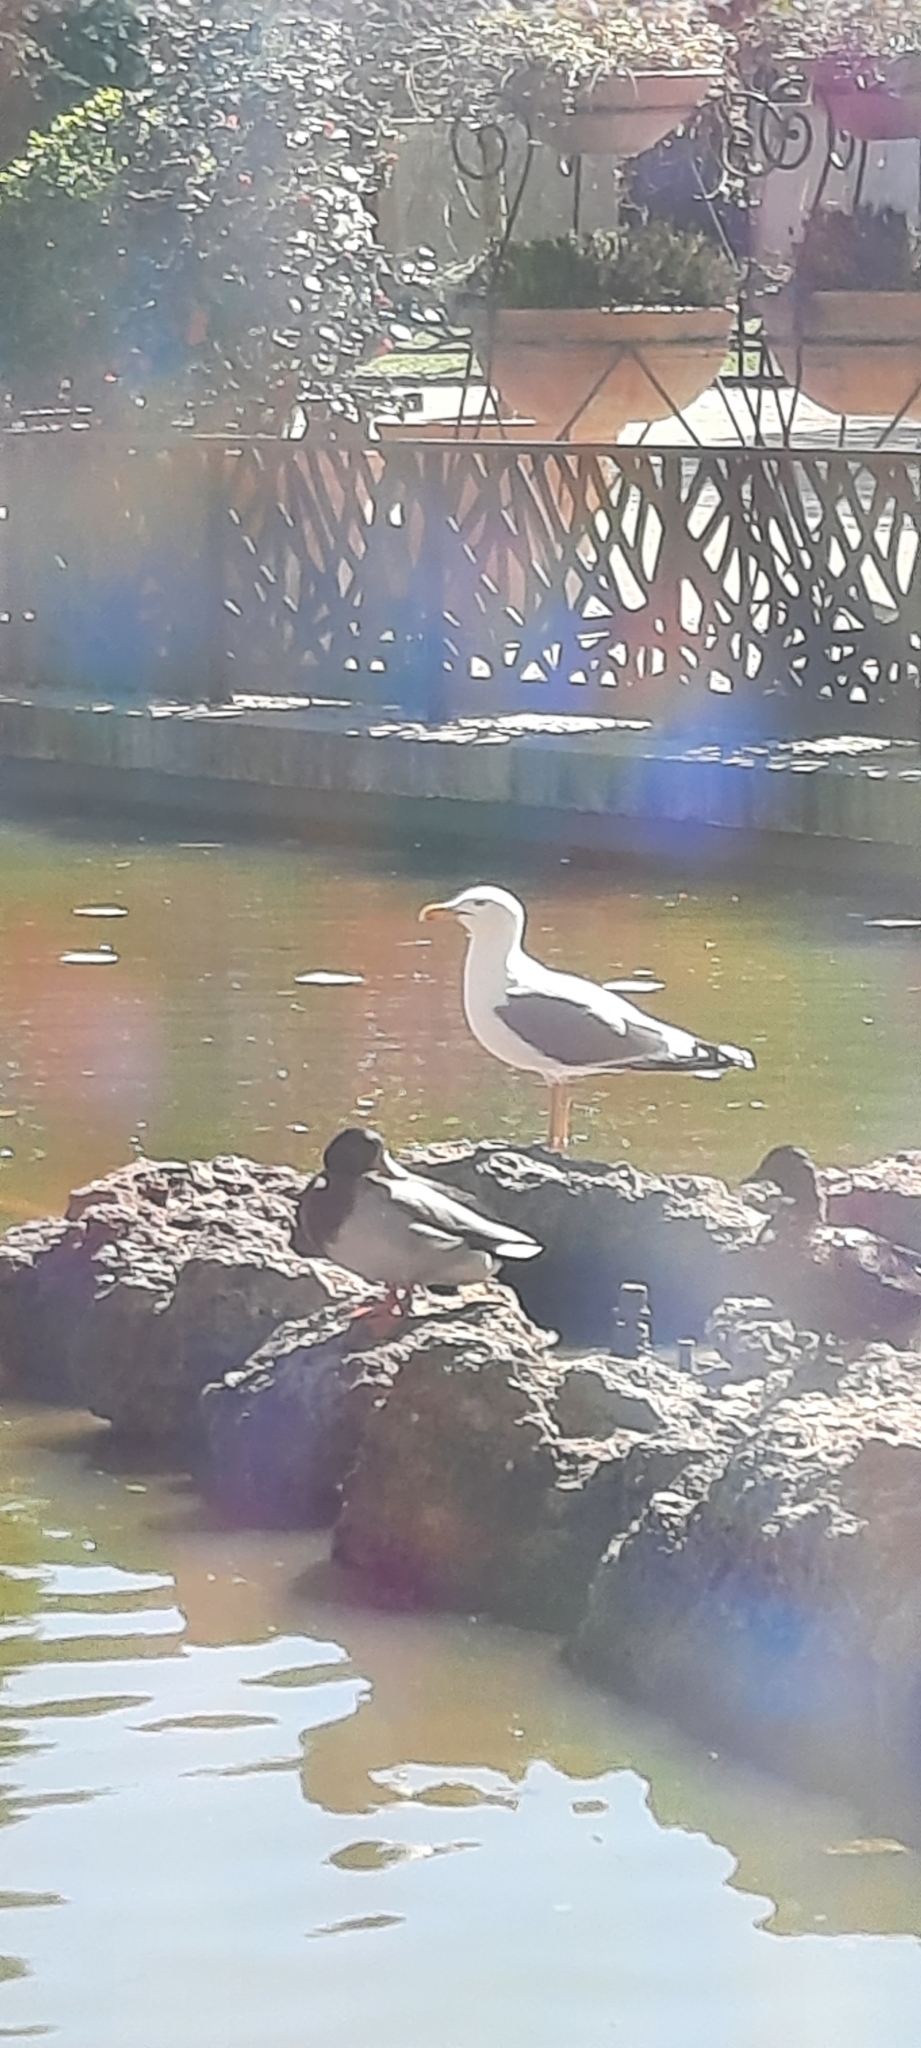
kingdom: Animalia
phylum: Chordata
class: Aves
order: Charadriiformes
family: Laridae
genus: Larus
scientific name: Larus michahellis
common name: Yellow-legged gull
